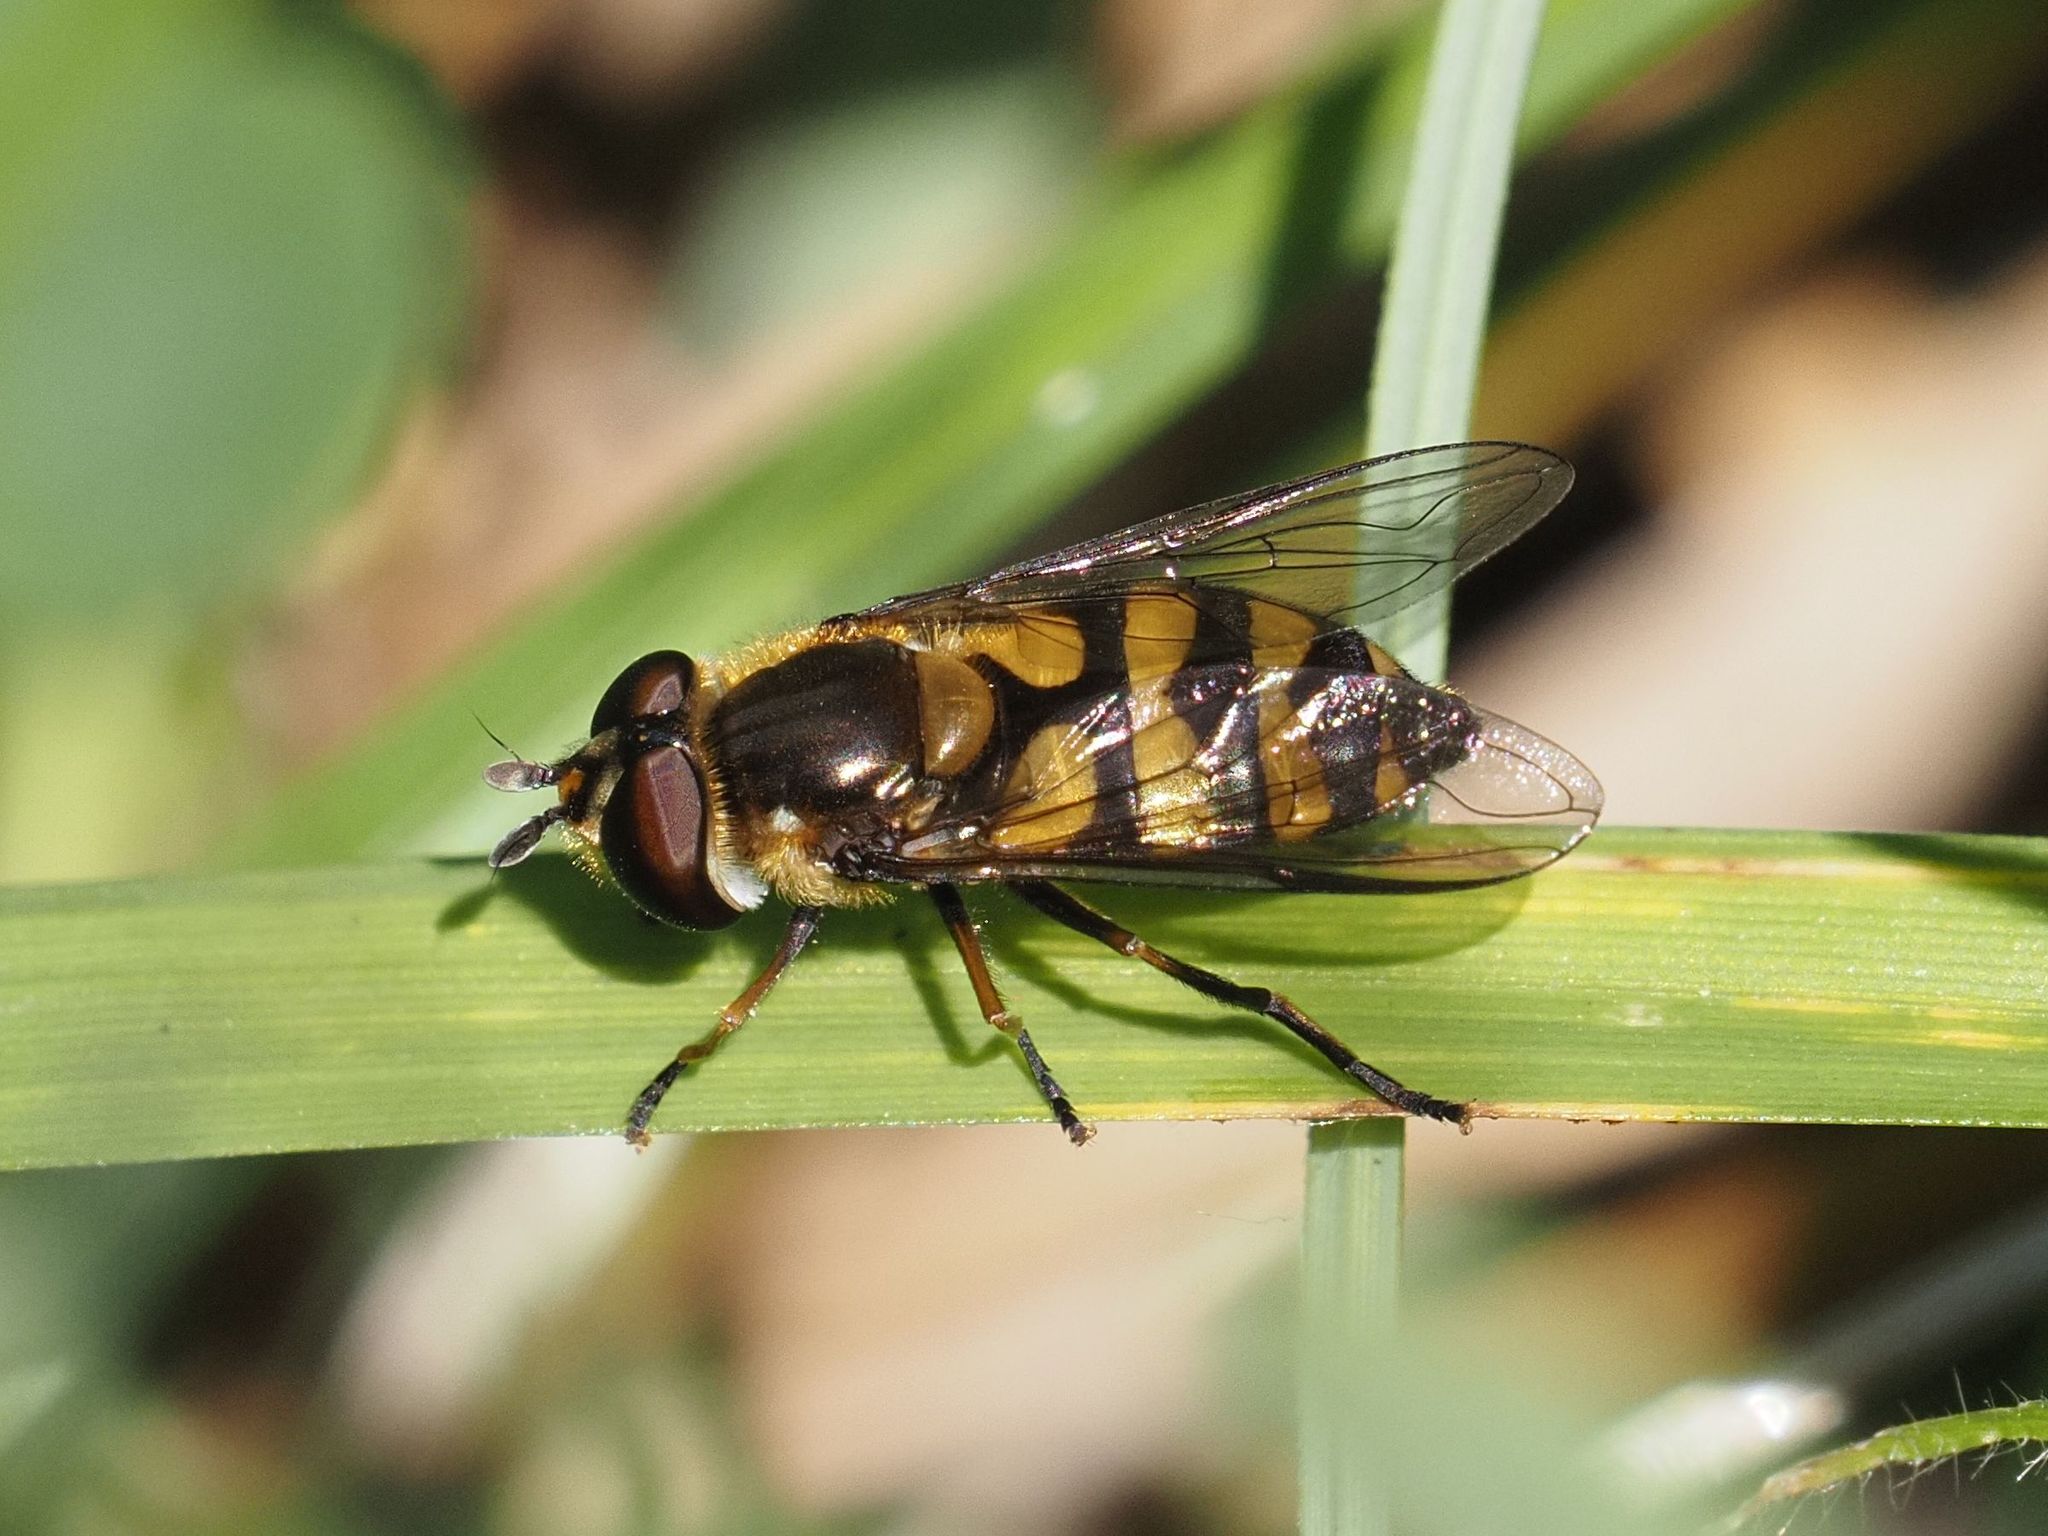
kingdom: Animalia
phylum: Arthropoda
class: Insecta
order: Diptera
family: Syrphidae
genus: Didea
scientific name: Didea fasciata
